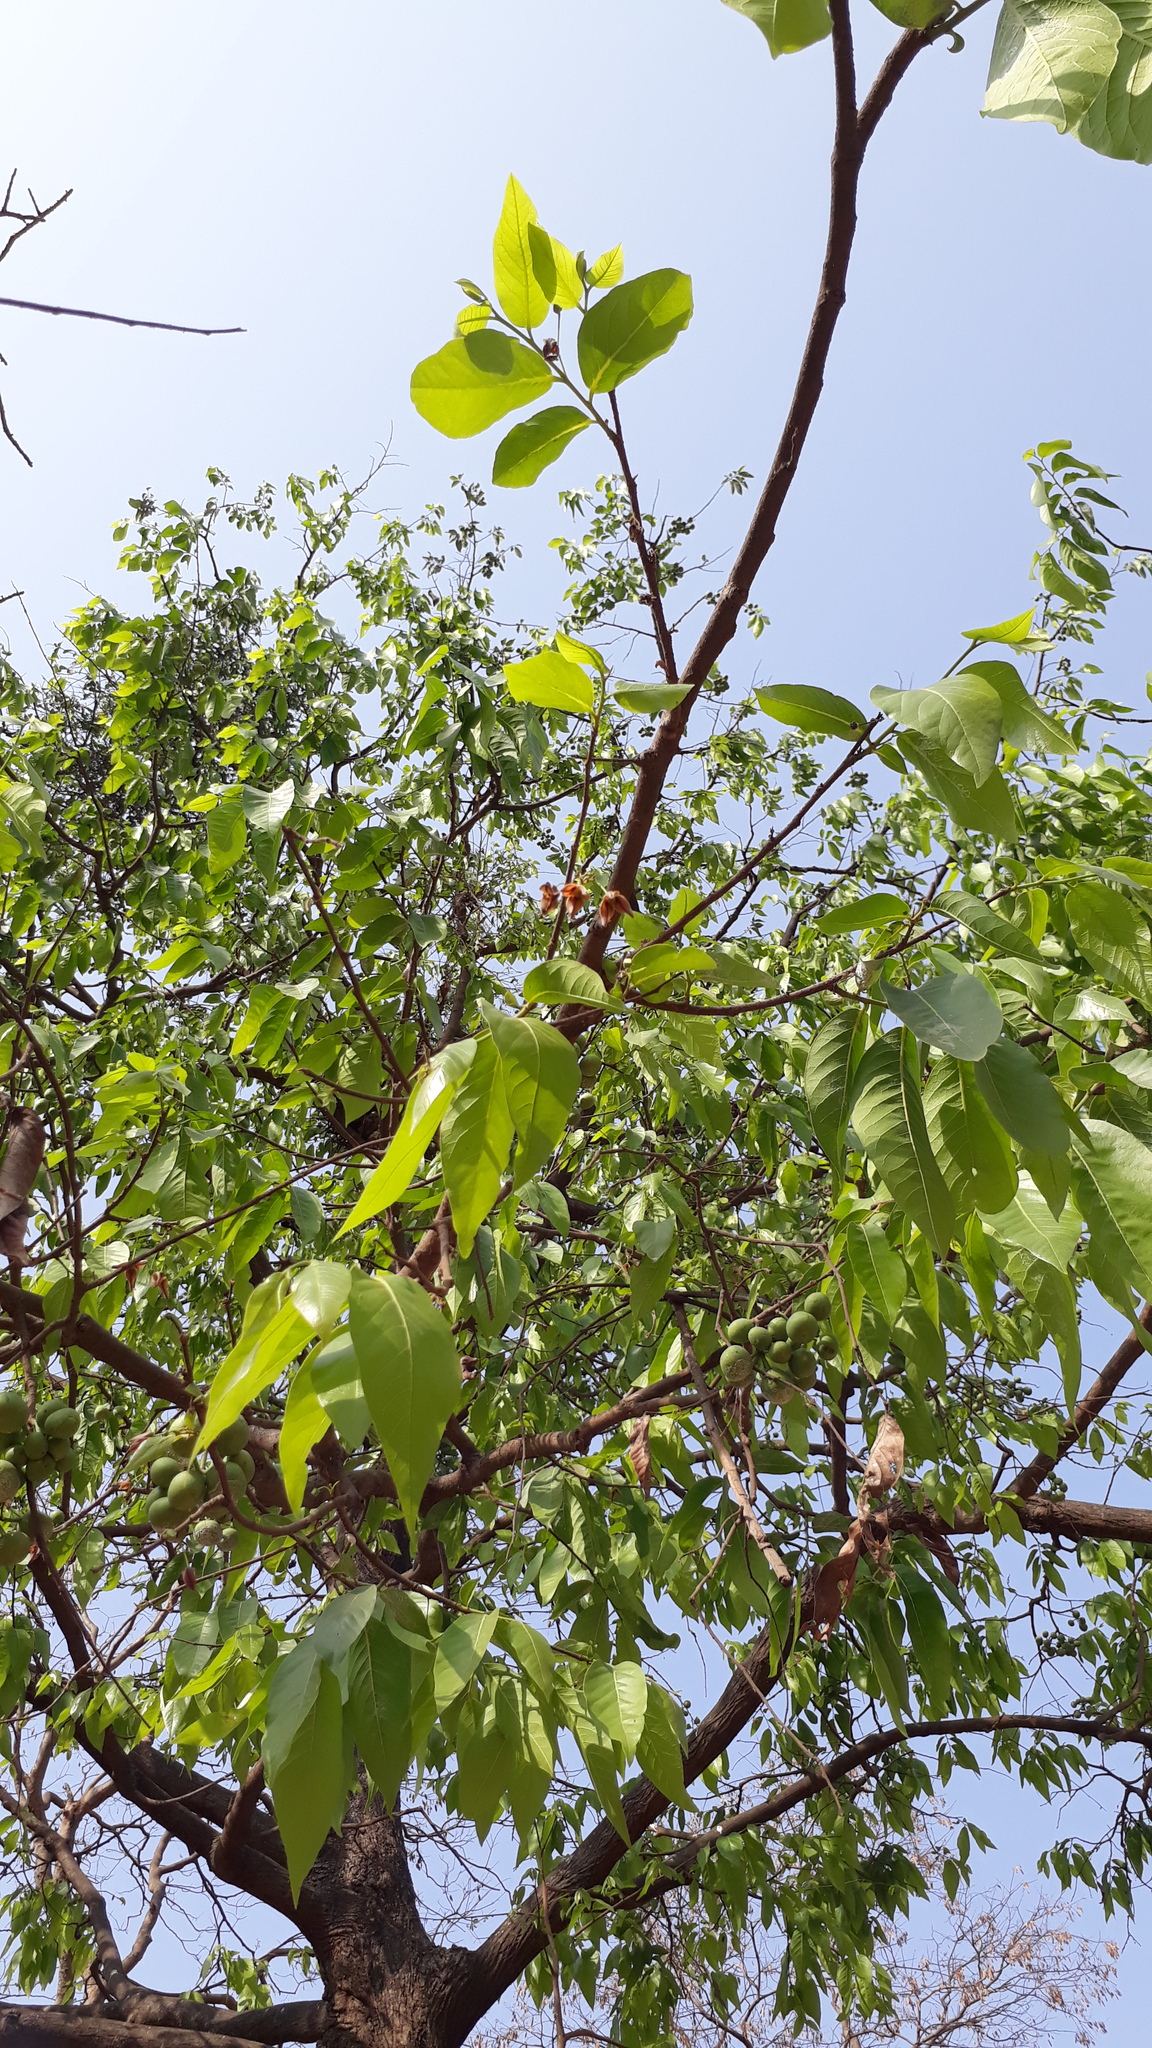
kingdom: Plantae
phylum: Tracheophyta
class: Magnoliopsida
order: Magnoliales
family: Annonaceae
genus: Miliusa
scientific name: Miliusa tomentosa
